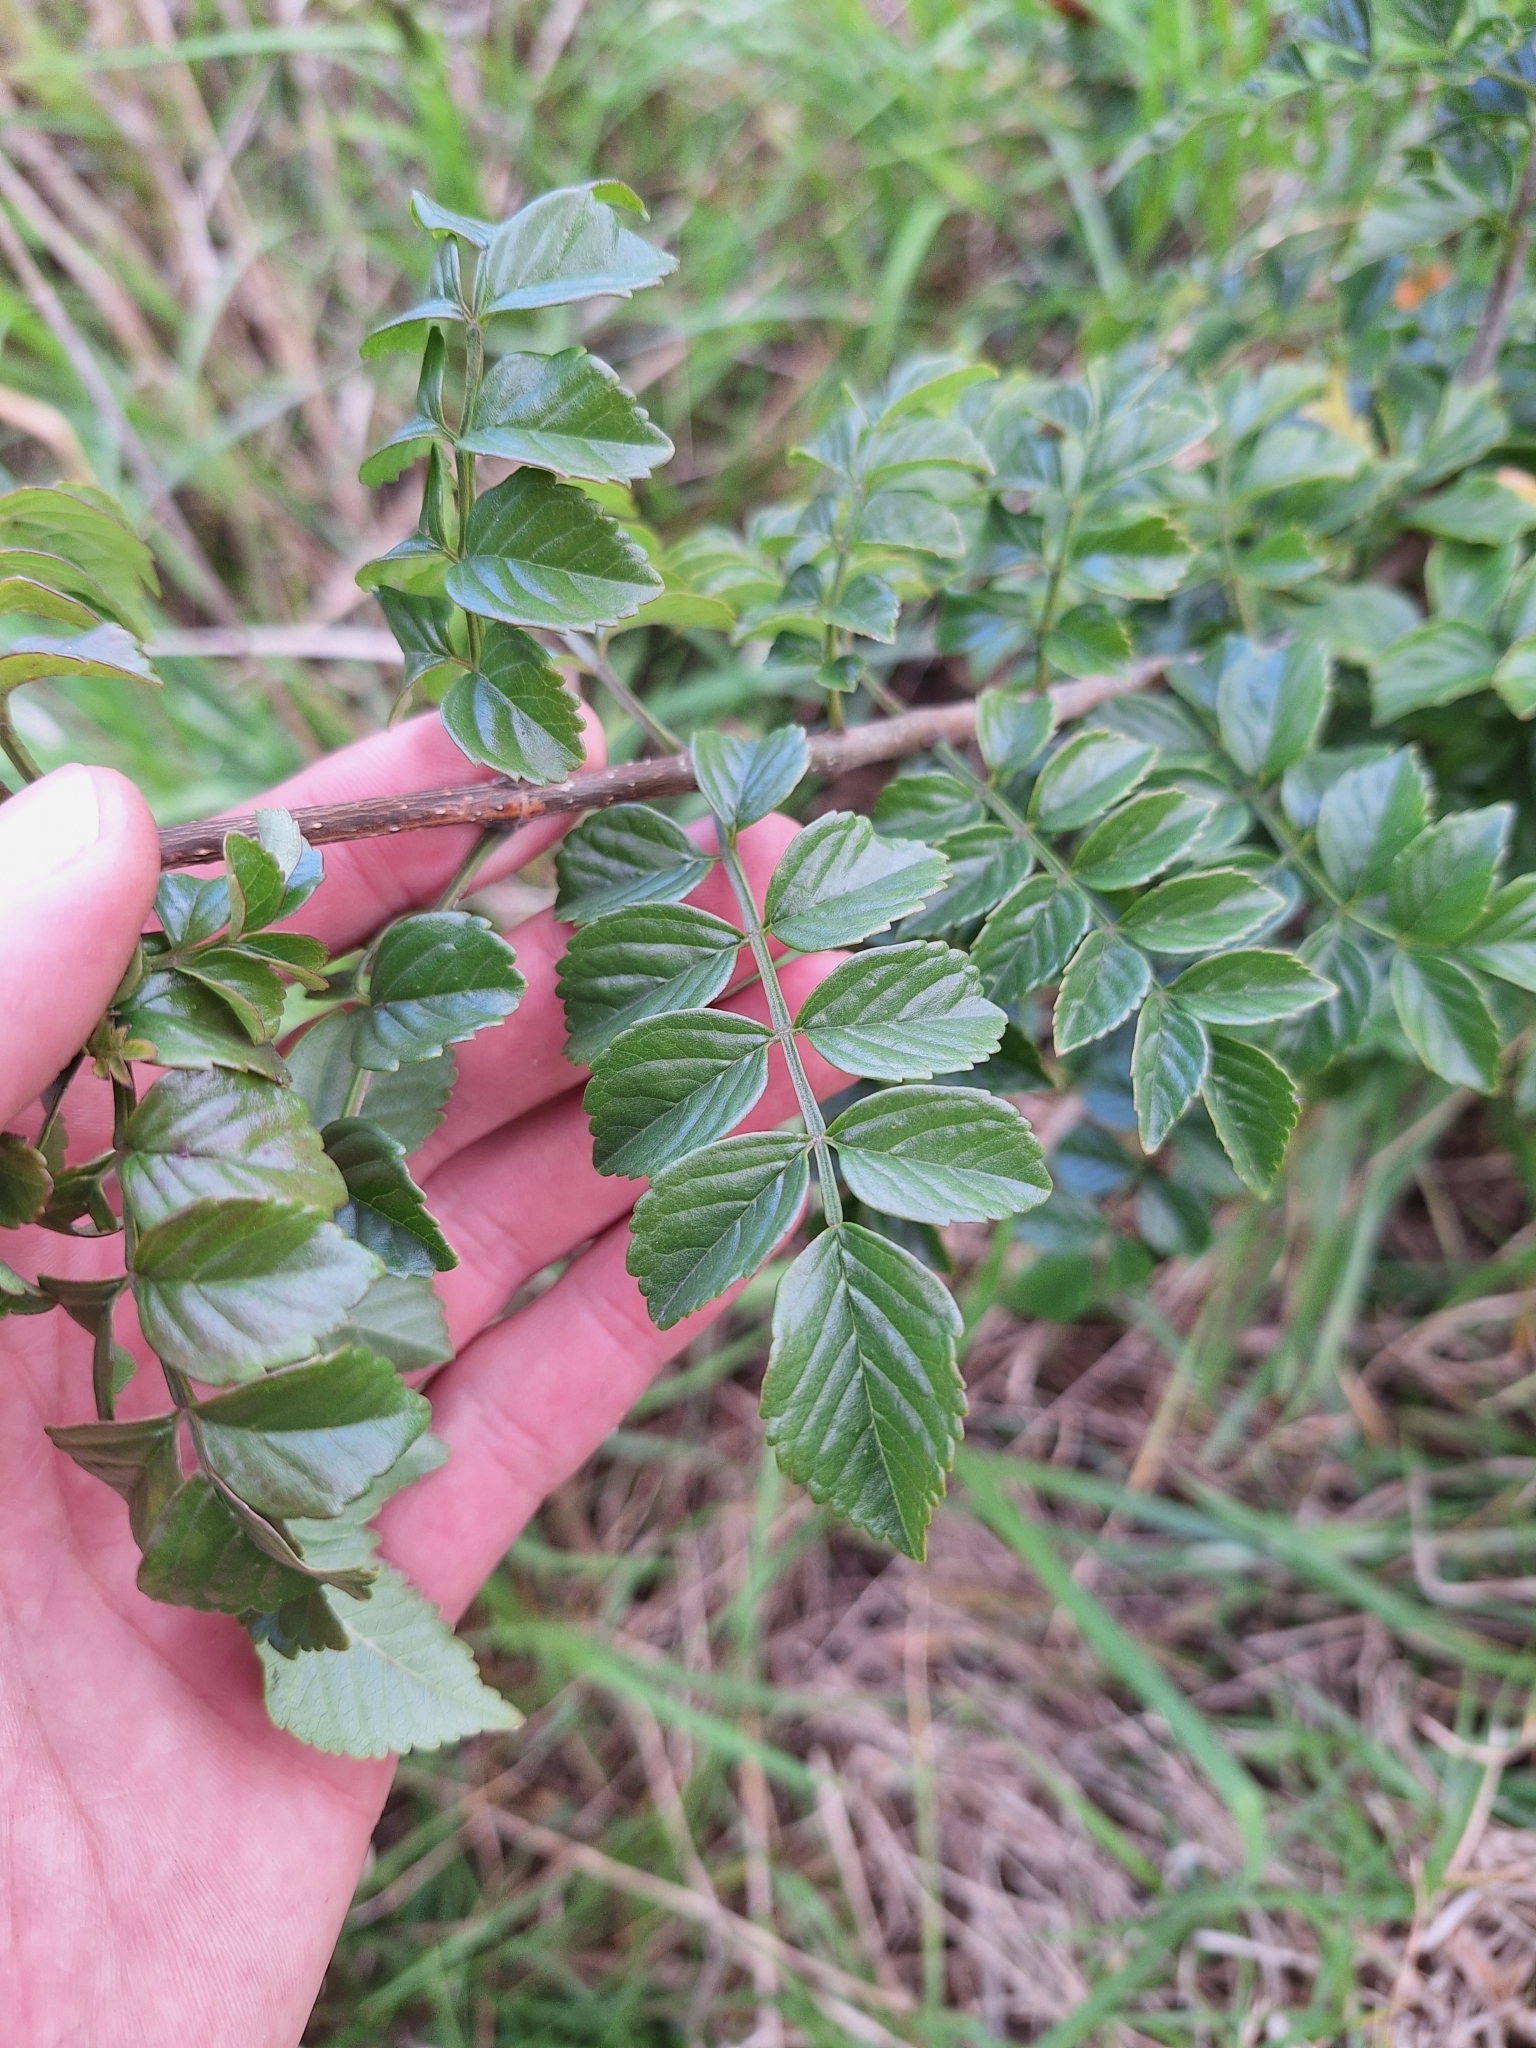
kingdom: Plantae
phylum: Tracheophyta
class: Magnoliopsida
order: Lamiales
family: Bignoniaceae
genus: Tecomaria
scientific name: Tecomaria capensis
